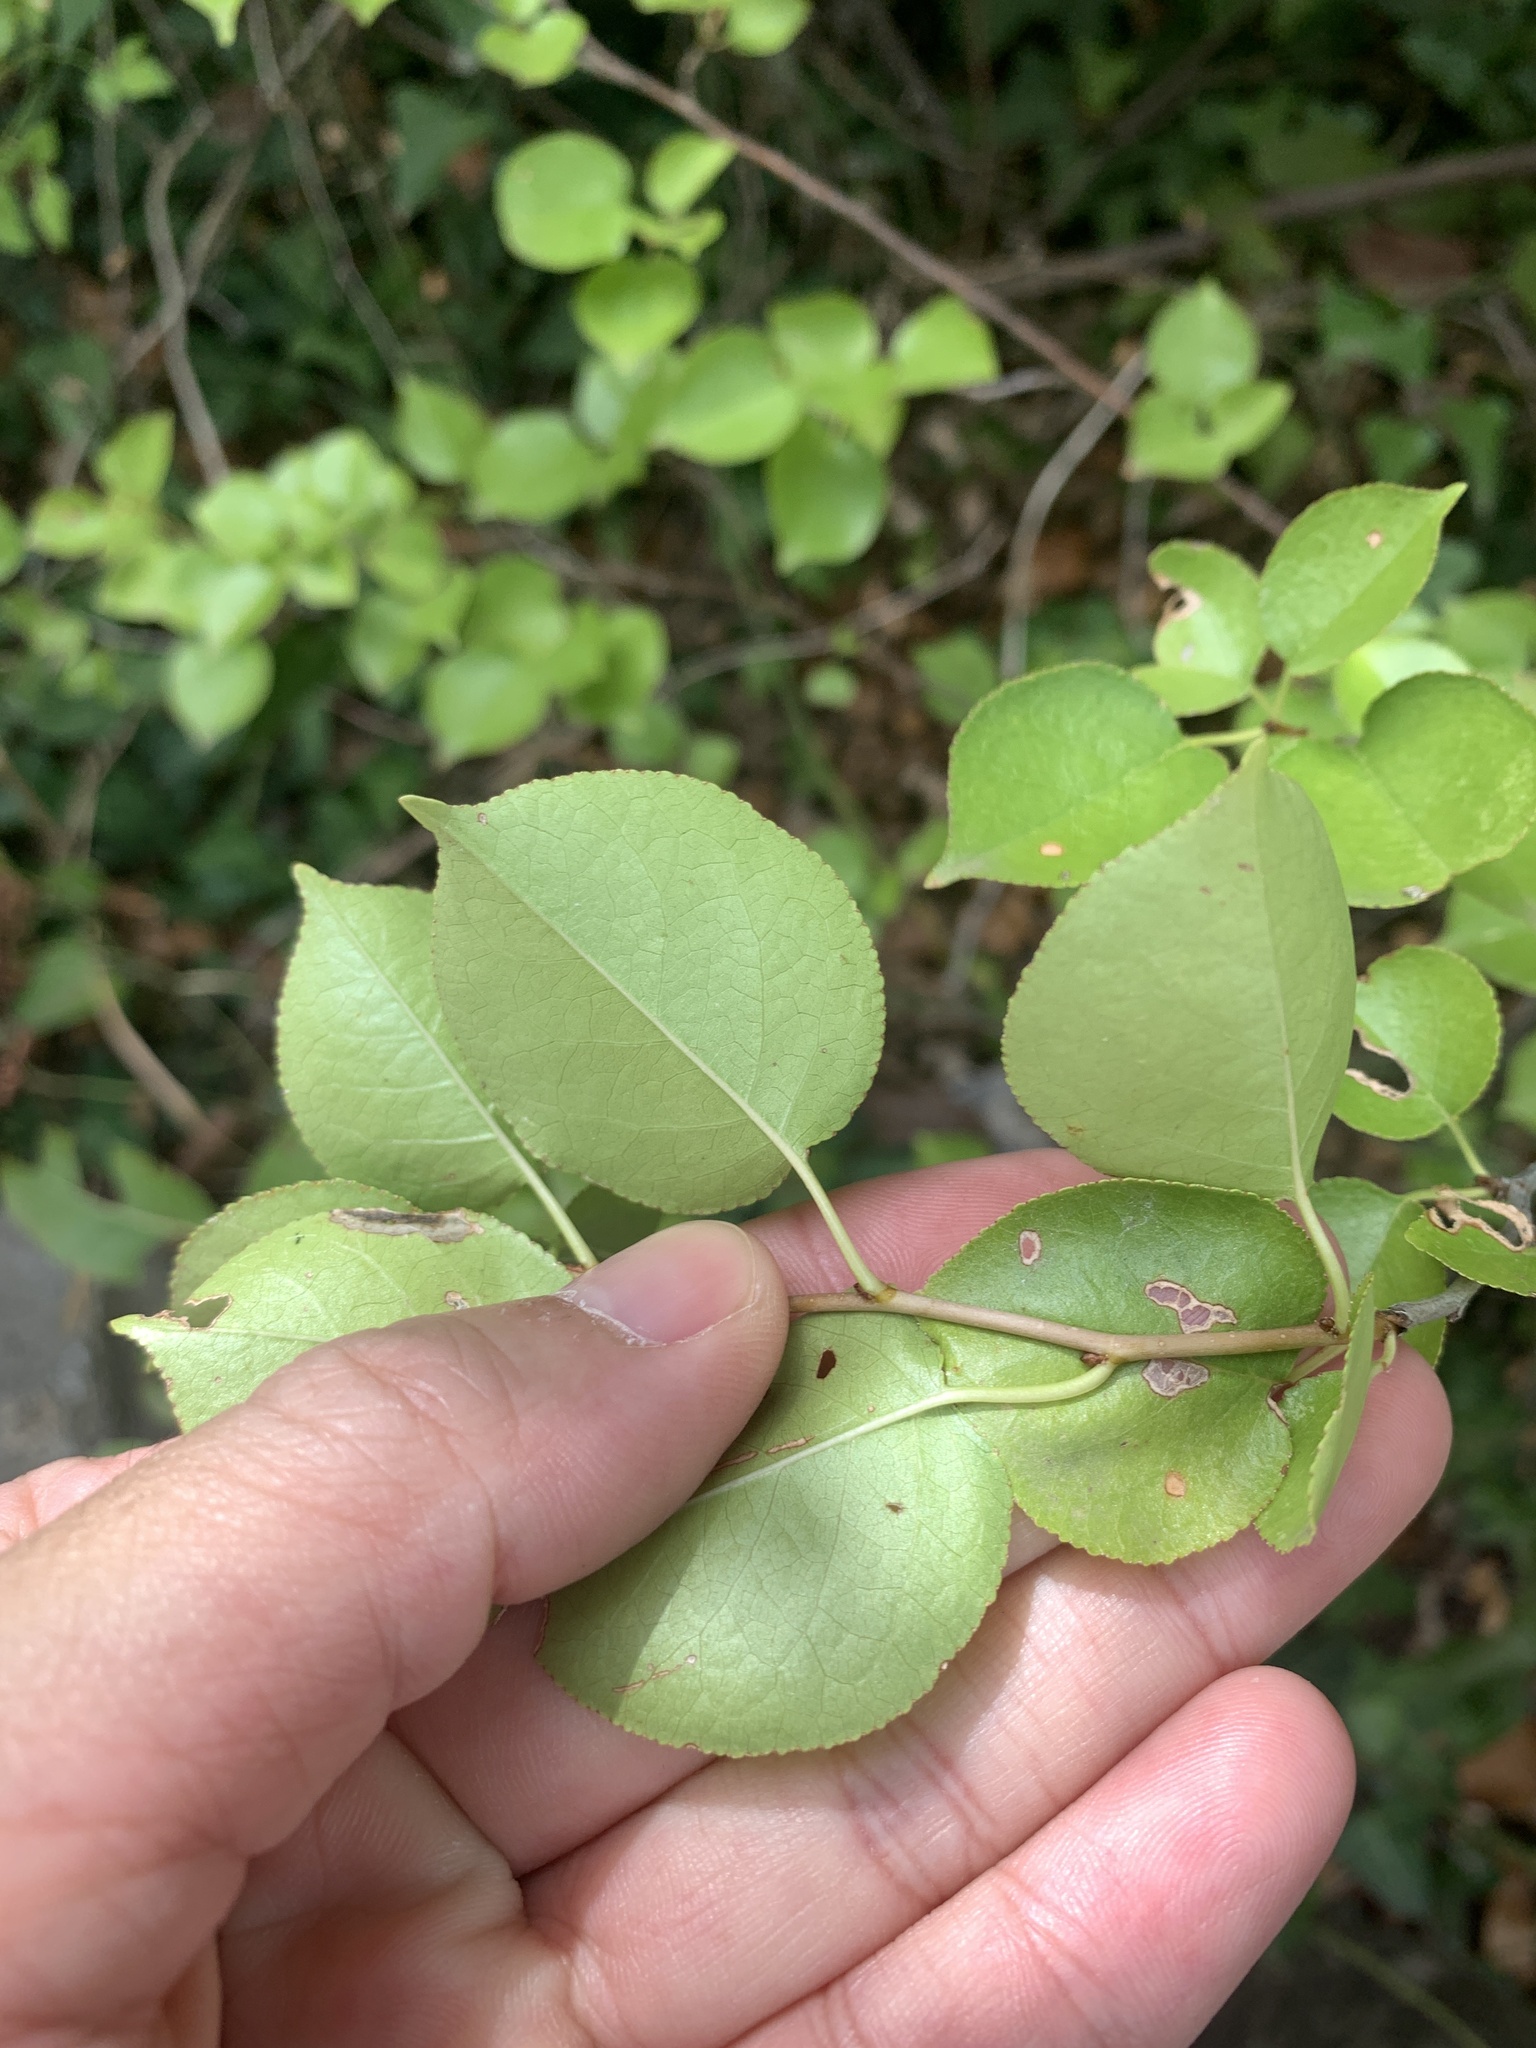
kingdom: Plantae
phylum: Tracheophyta
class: Magnoliopsida
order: Rosales
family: Rosaceae
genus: Prunus
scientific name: Prunus mahaleb
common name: Mahaleb cherry
